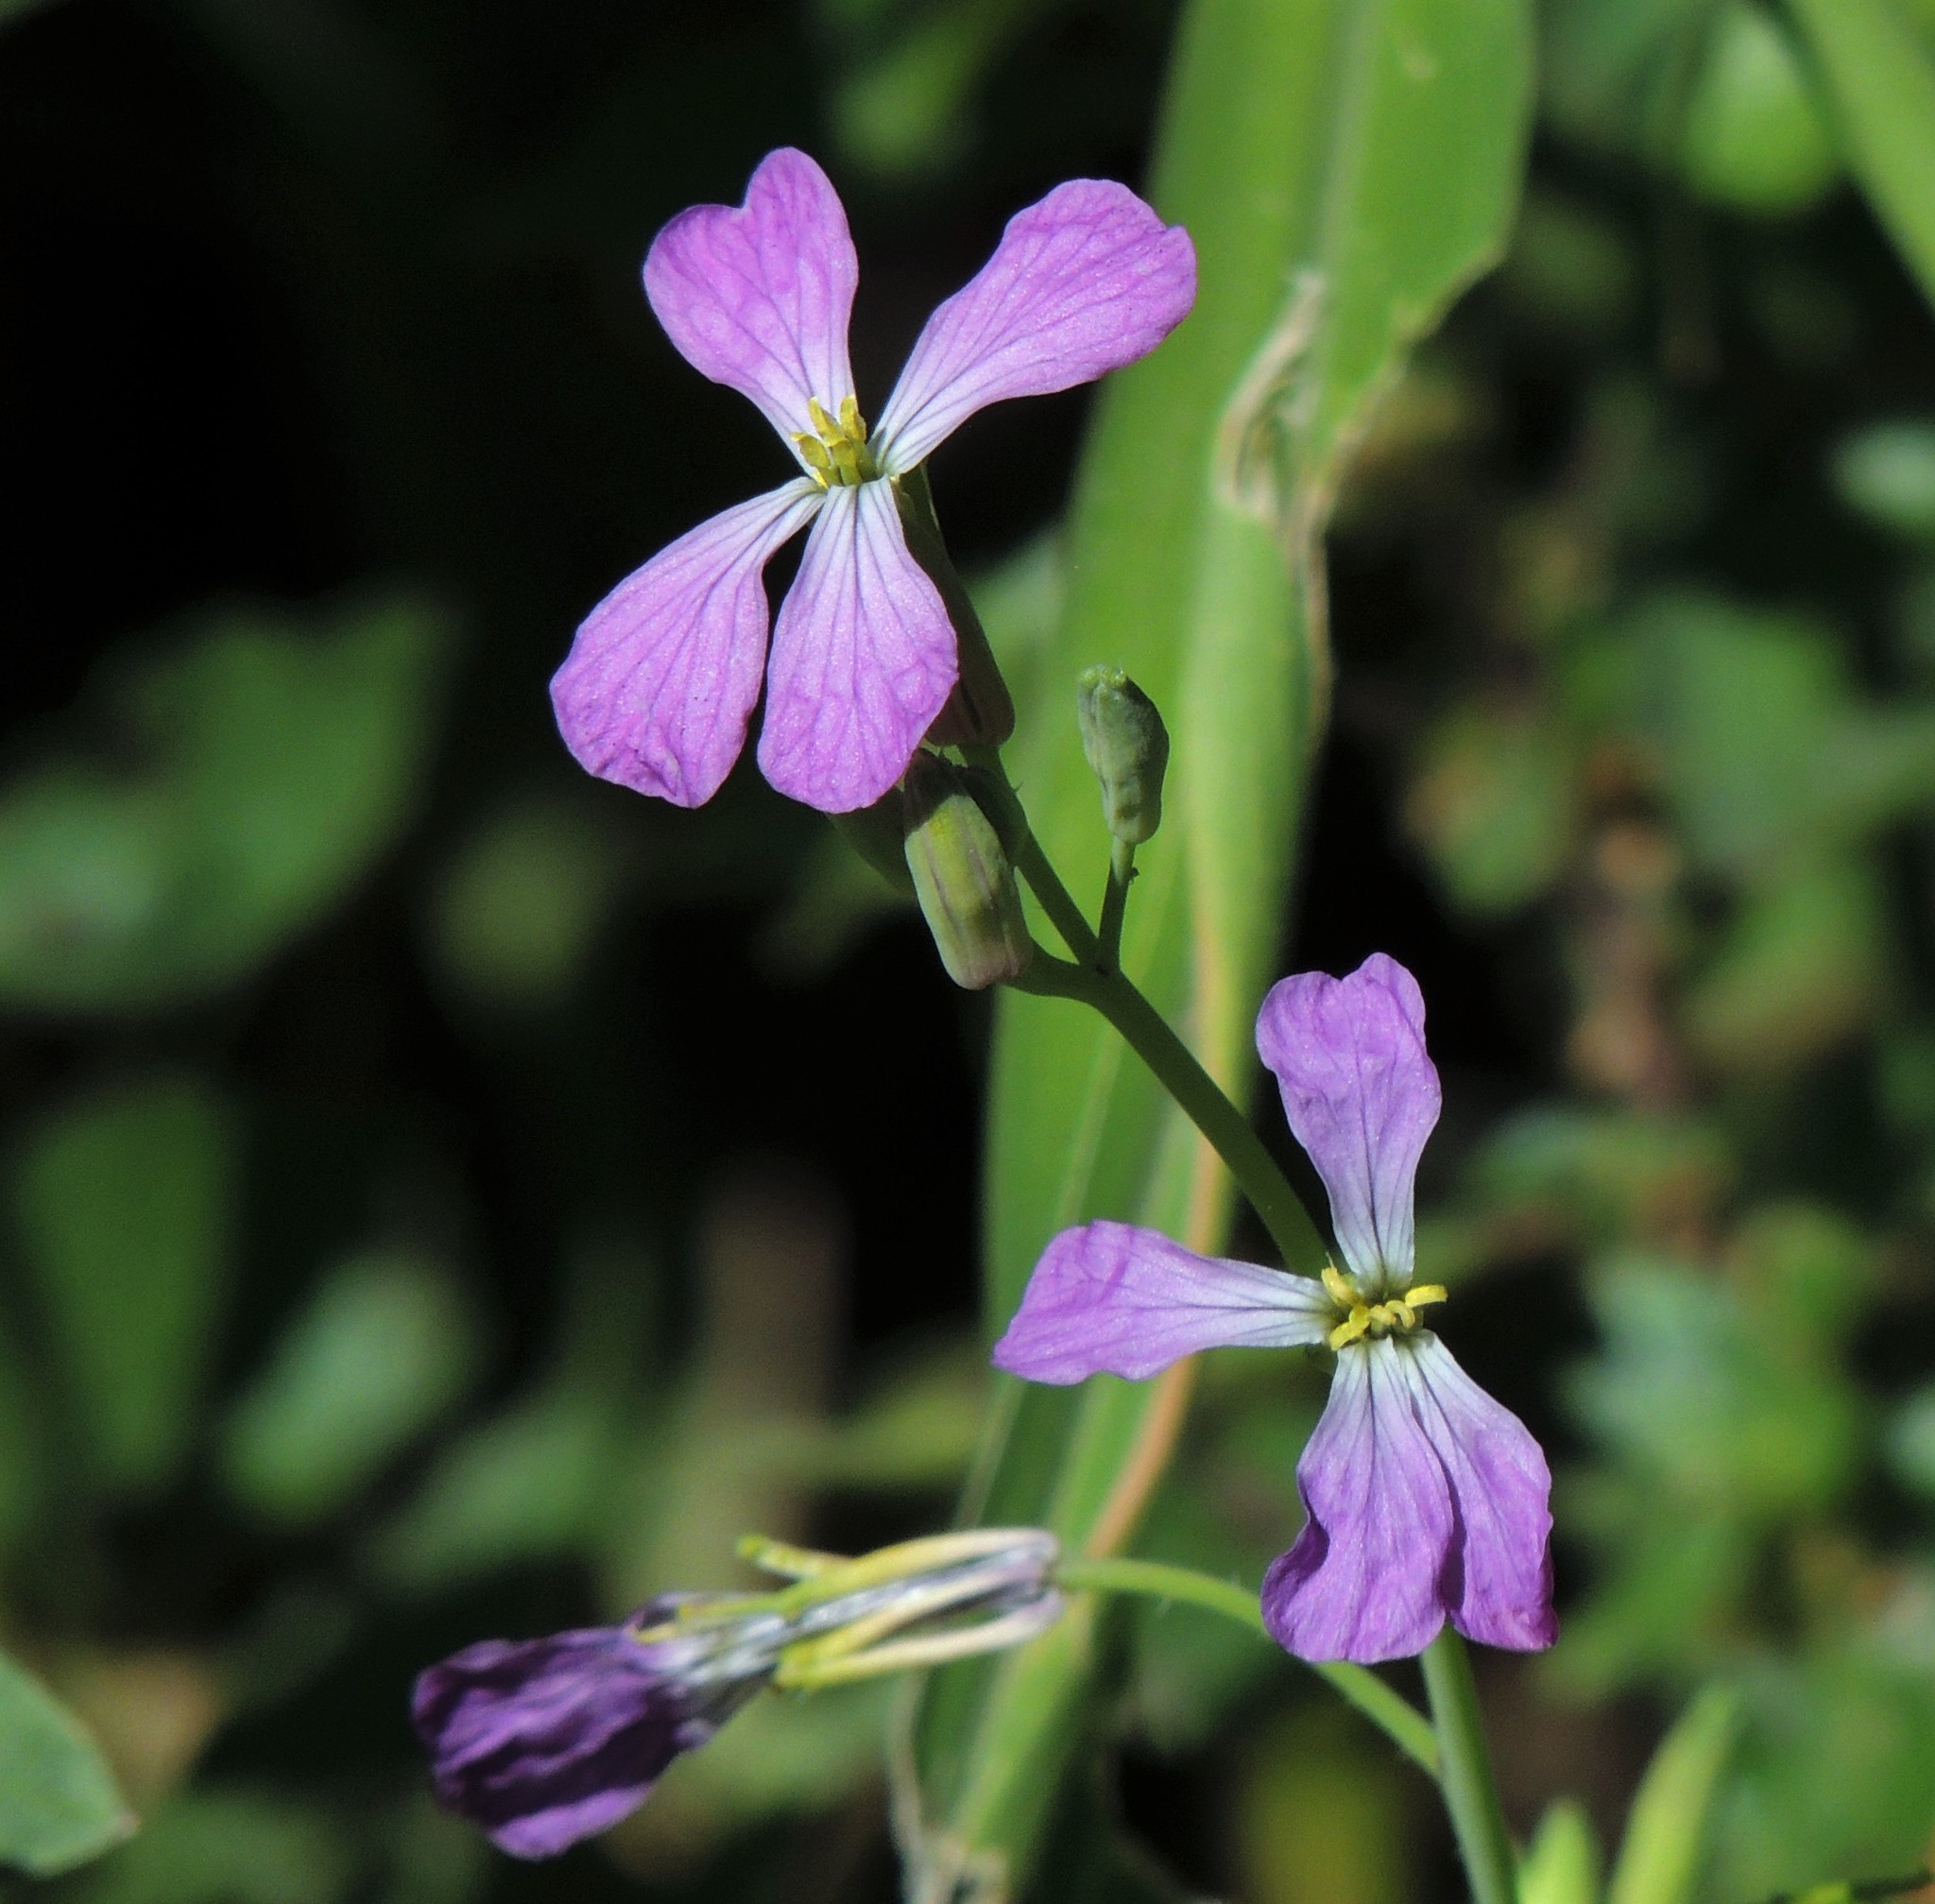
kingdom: Plantae
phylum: Tracheophyta
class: Magnoliopsida
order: Brassicales
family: Brassicaceae
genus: Raphanus
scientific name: Raphanus sativus
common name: Cultivated radish
